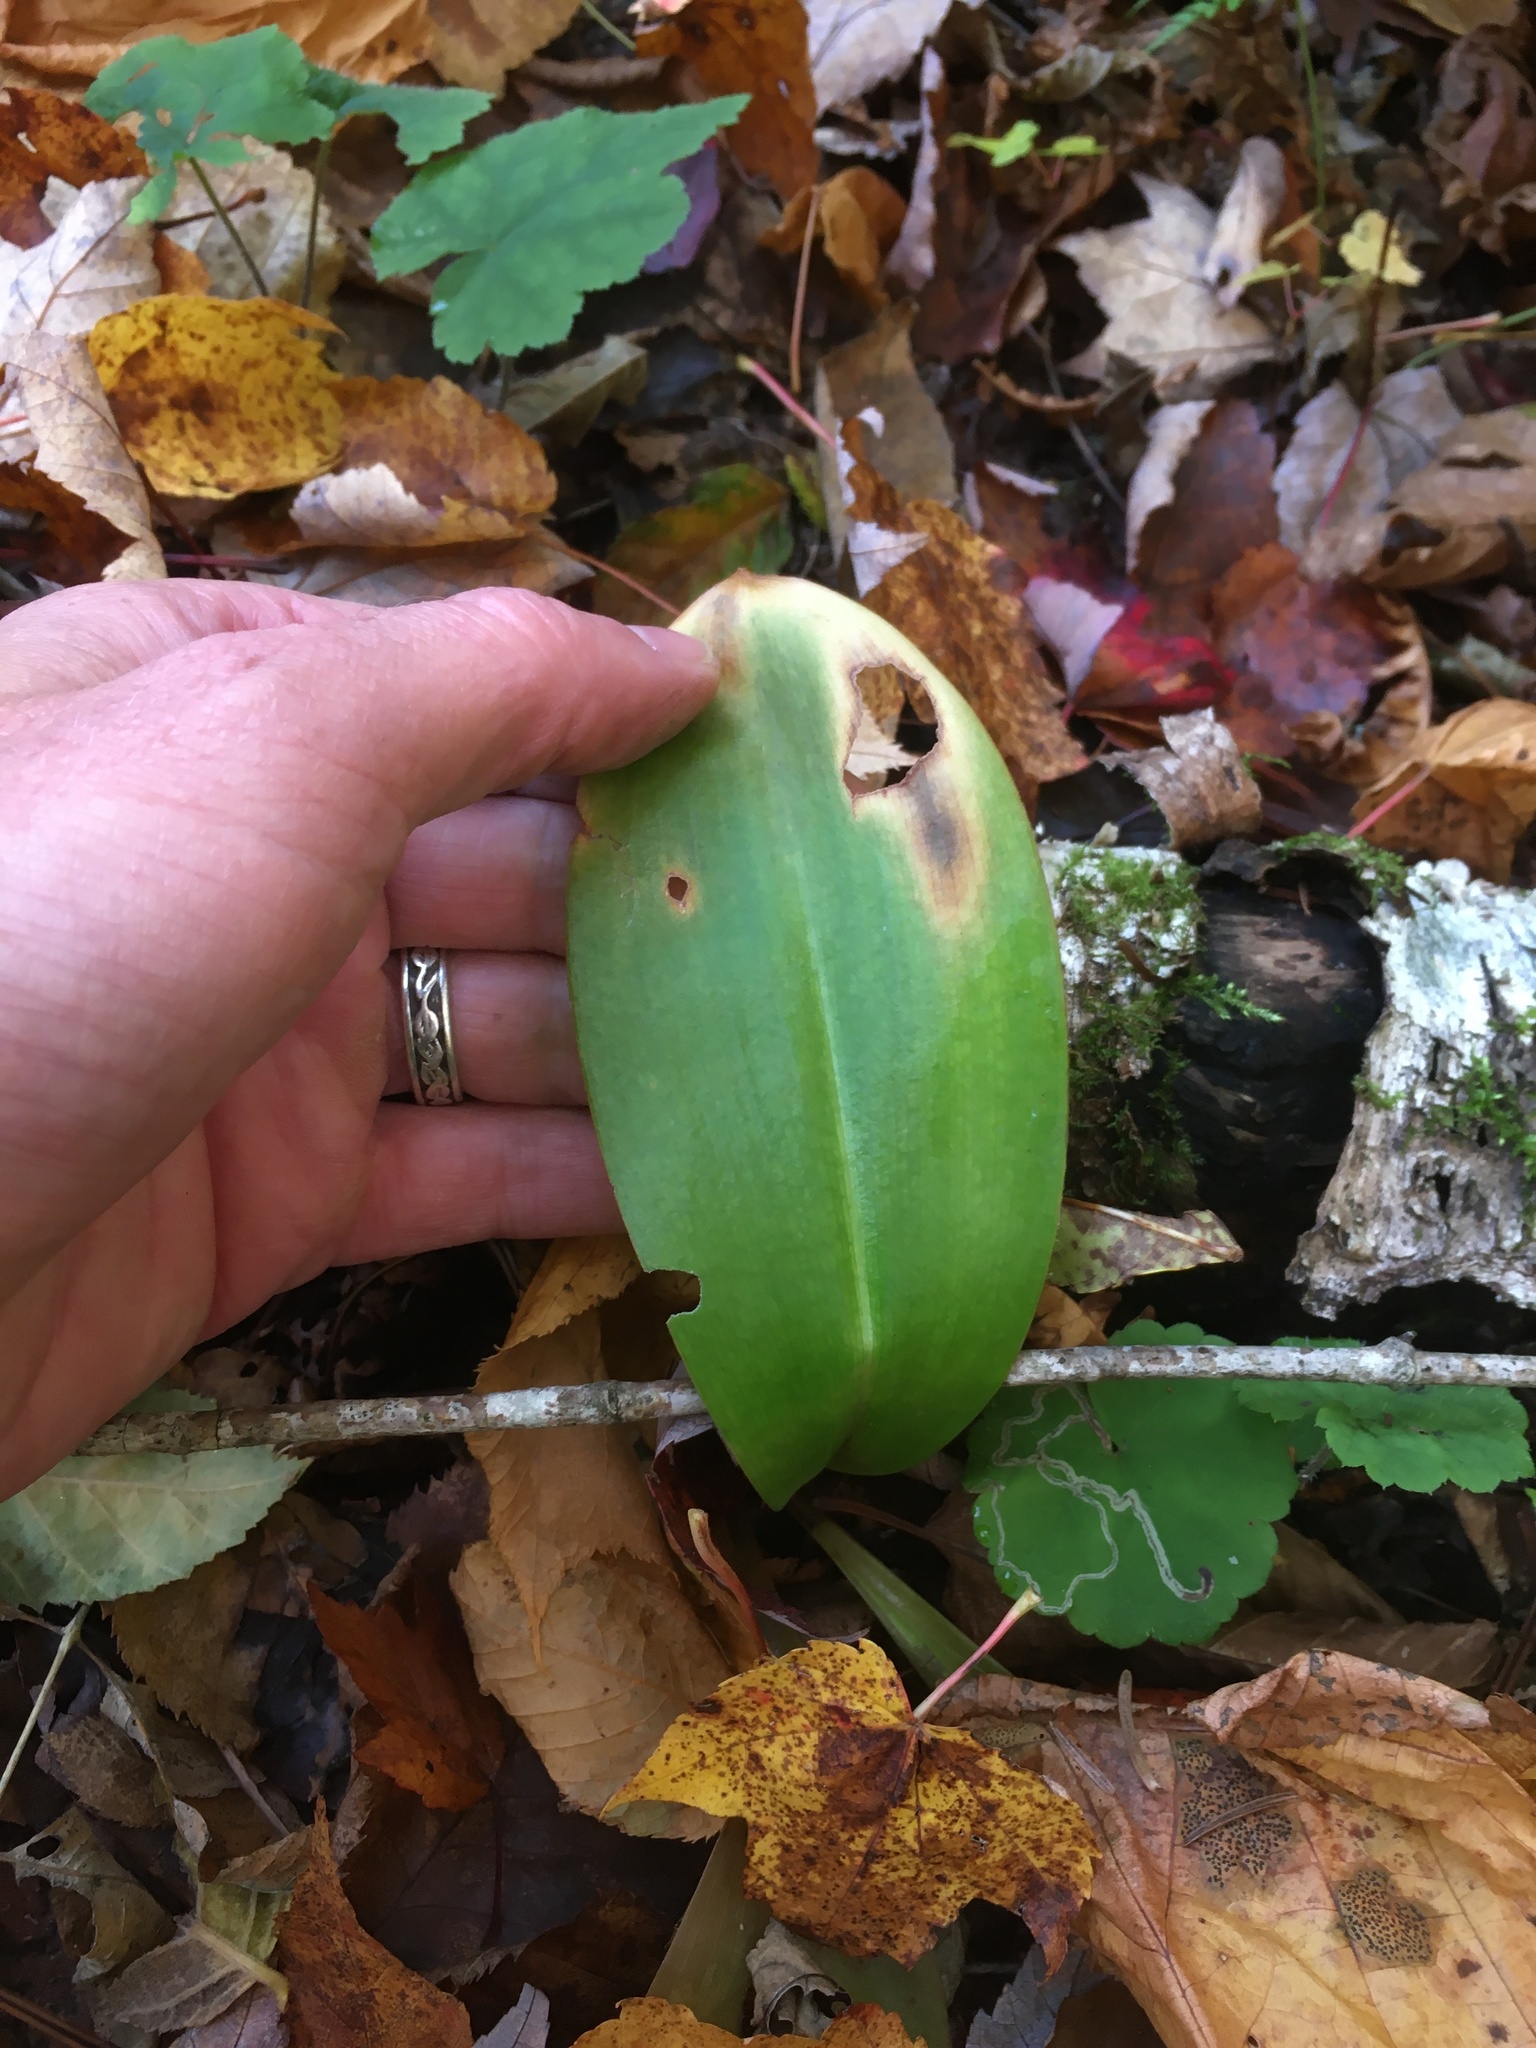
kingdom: Plantae
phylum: Tracheophyta
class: Liliopsida
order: Liliales
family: Liliaceae
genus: Clintonia
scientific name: Clintonia borealis
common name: Yellow clintonia
